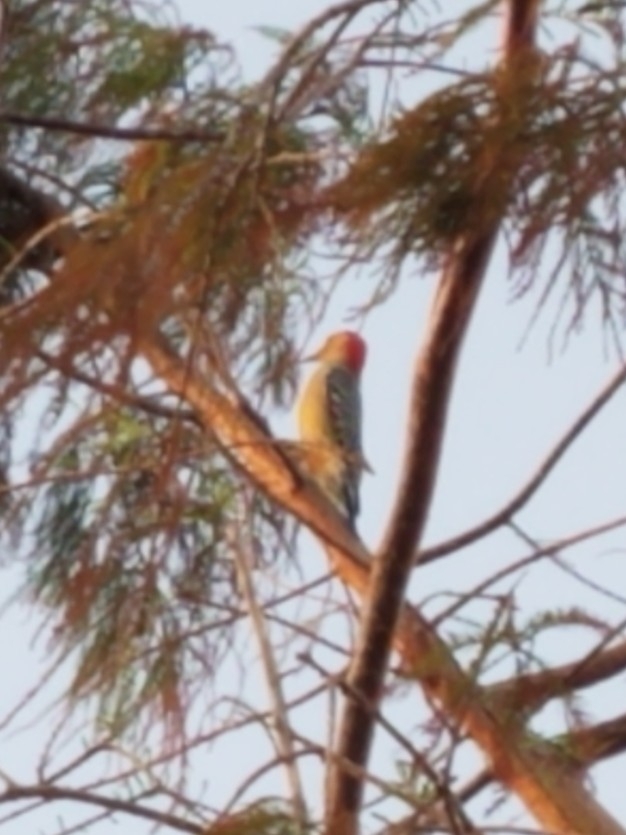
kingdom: Animalia
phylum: Chordata
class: Aves
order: Piciformes
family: Picidae
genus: Melanerpes
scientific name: Melanerpes carolinus
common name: Red-bellied woodpecker
